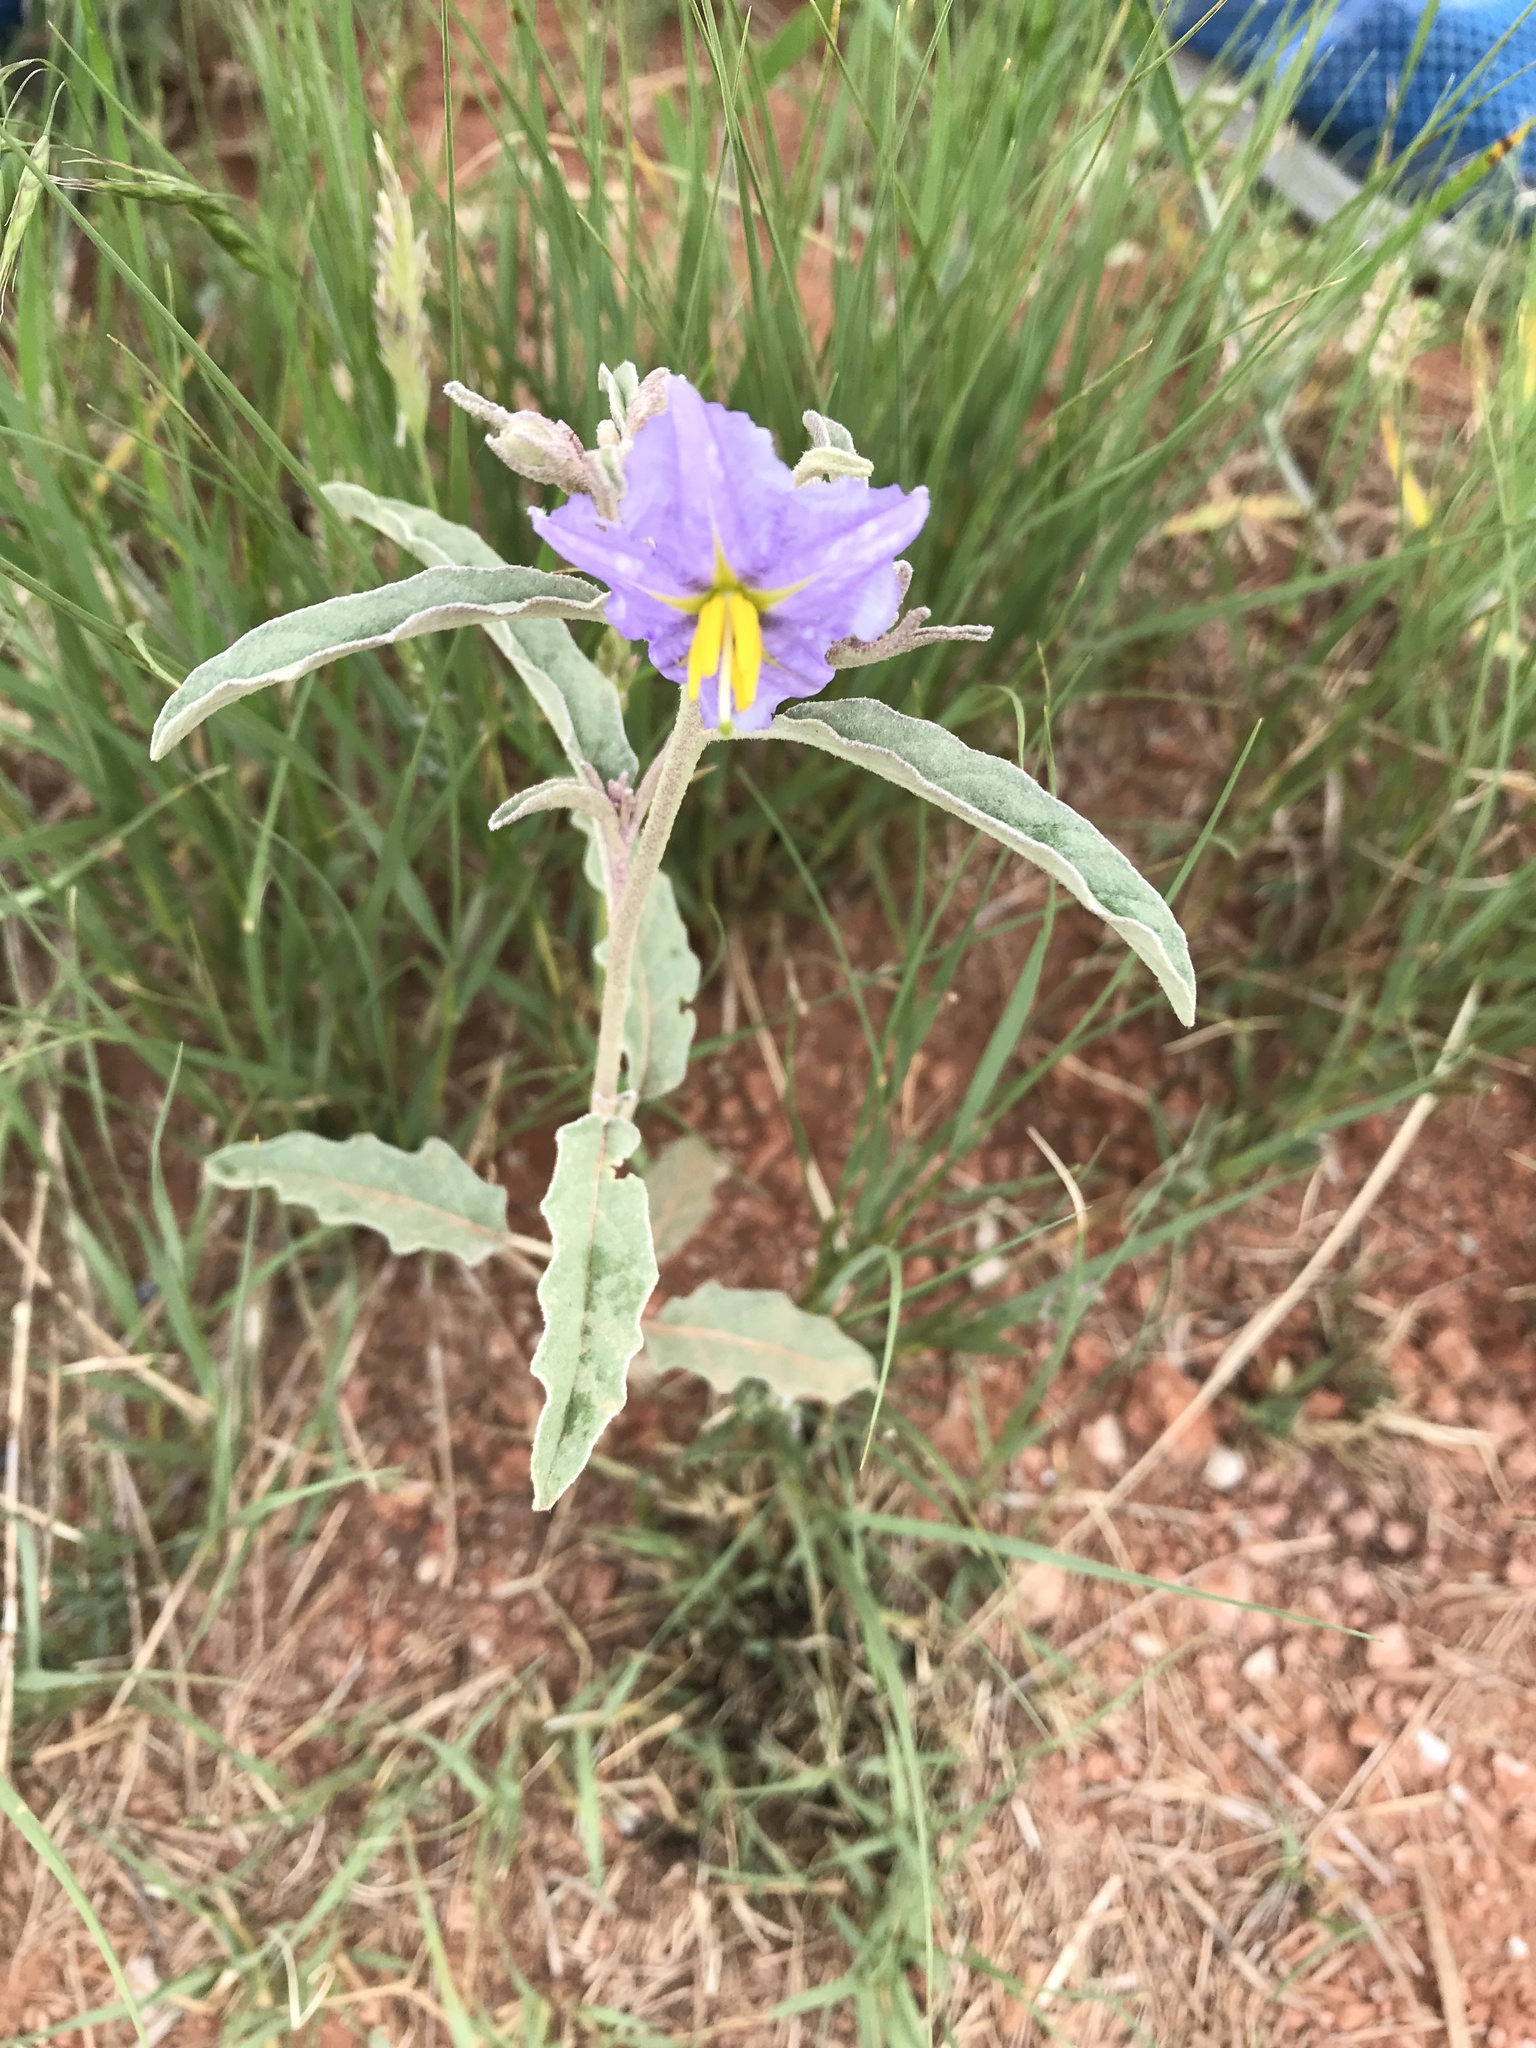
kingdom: Plantae
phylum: Tracheophyta
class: Magnoliopsida
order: Solanales
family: Solanaceae
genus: Solanum
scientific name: Solanum elaeagnifolium
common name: Silverleaf nightshade
